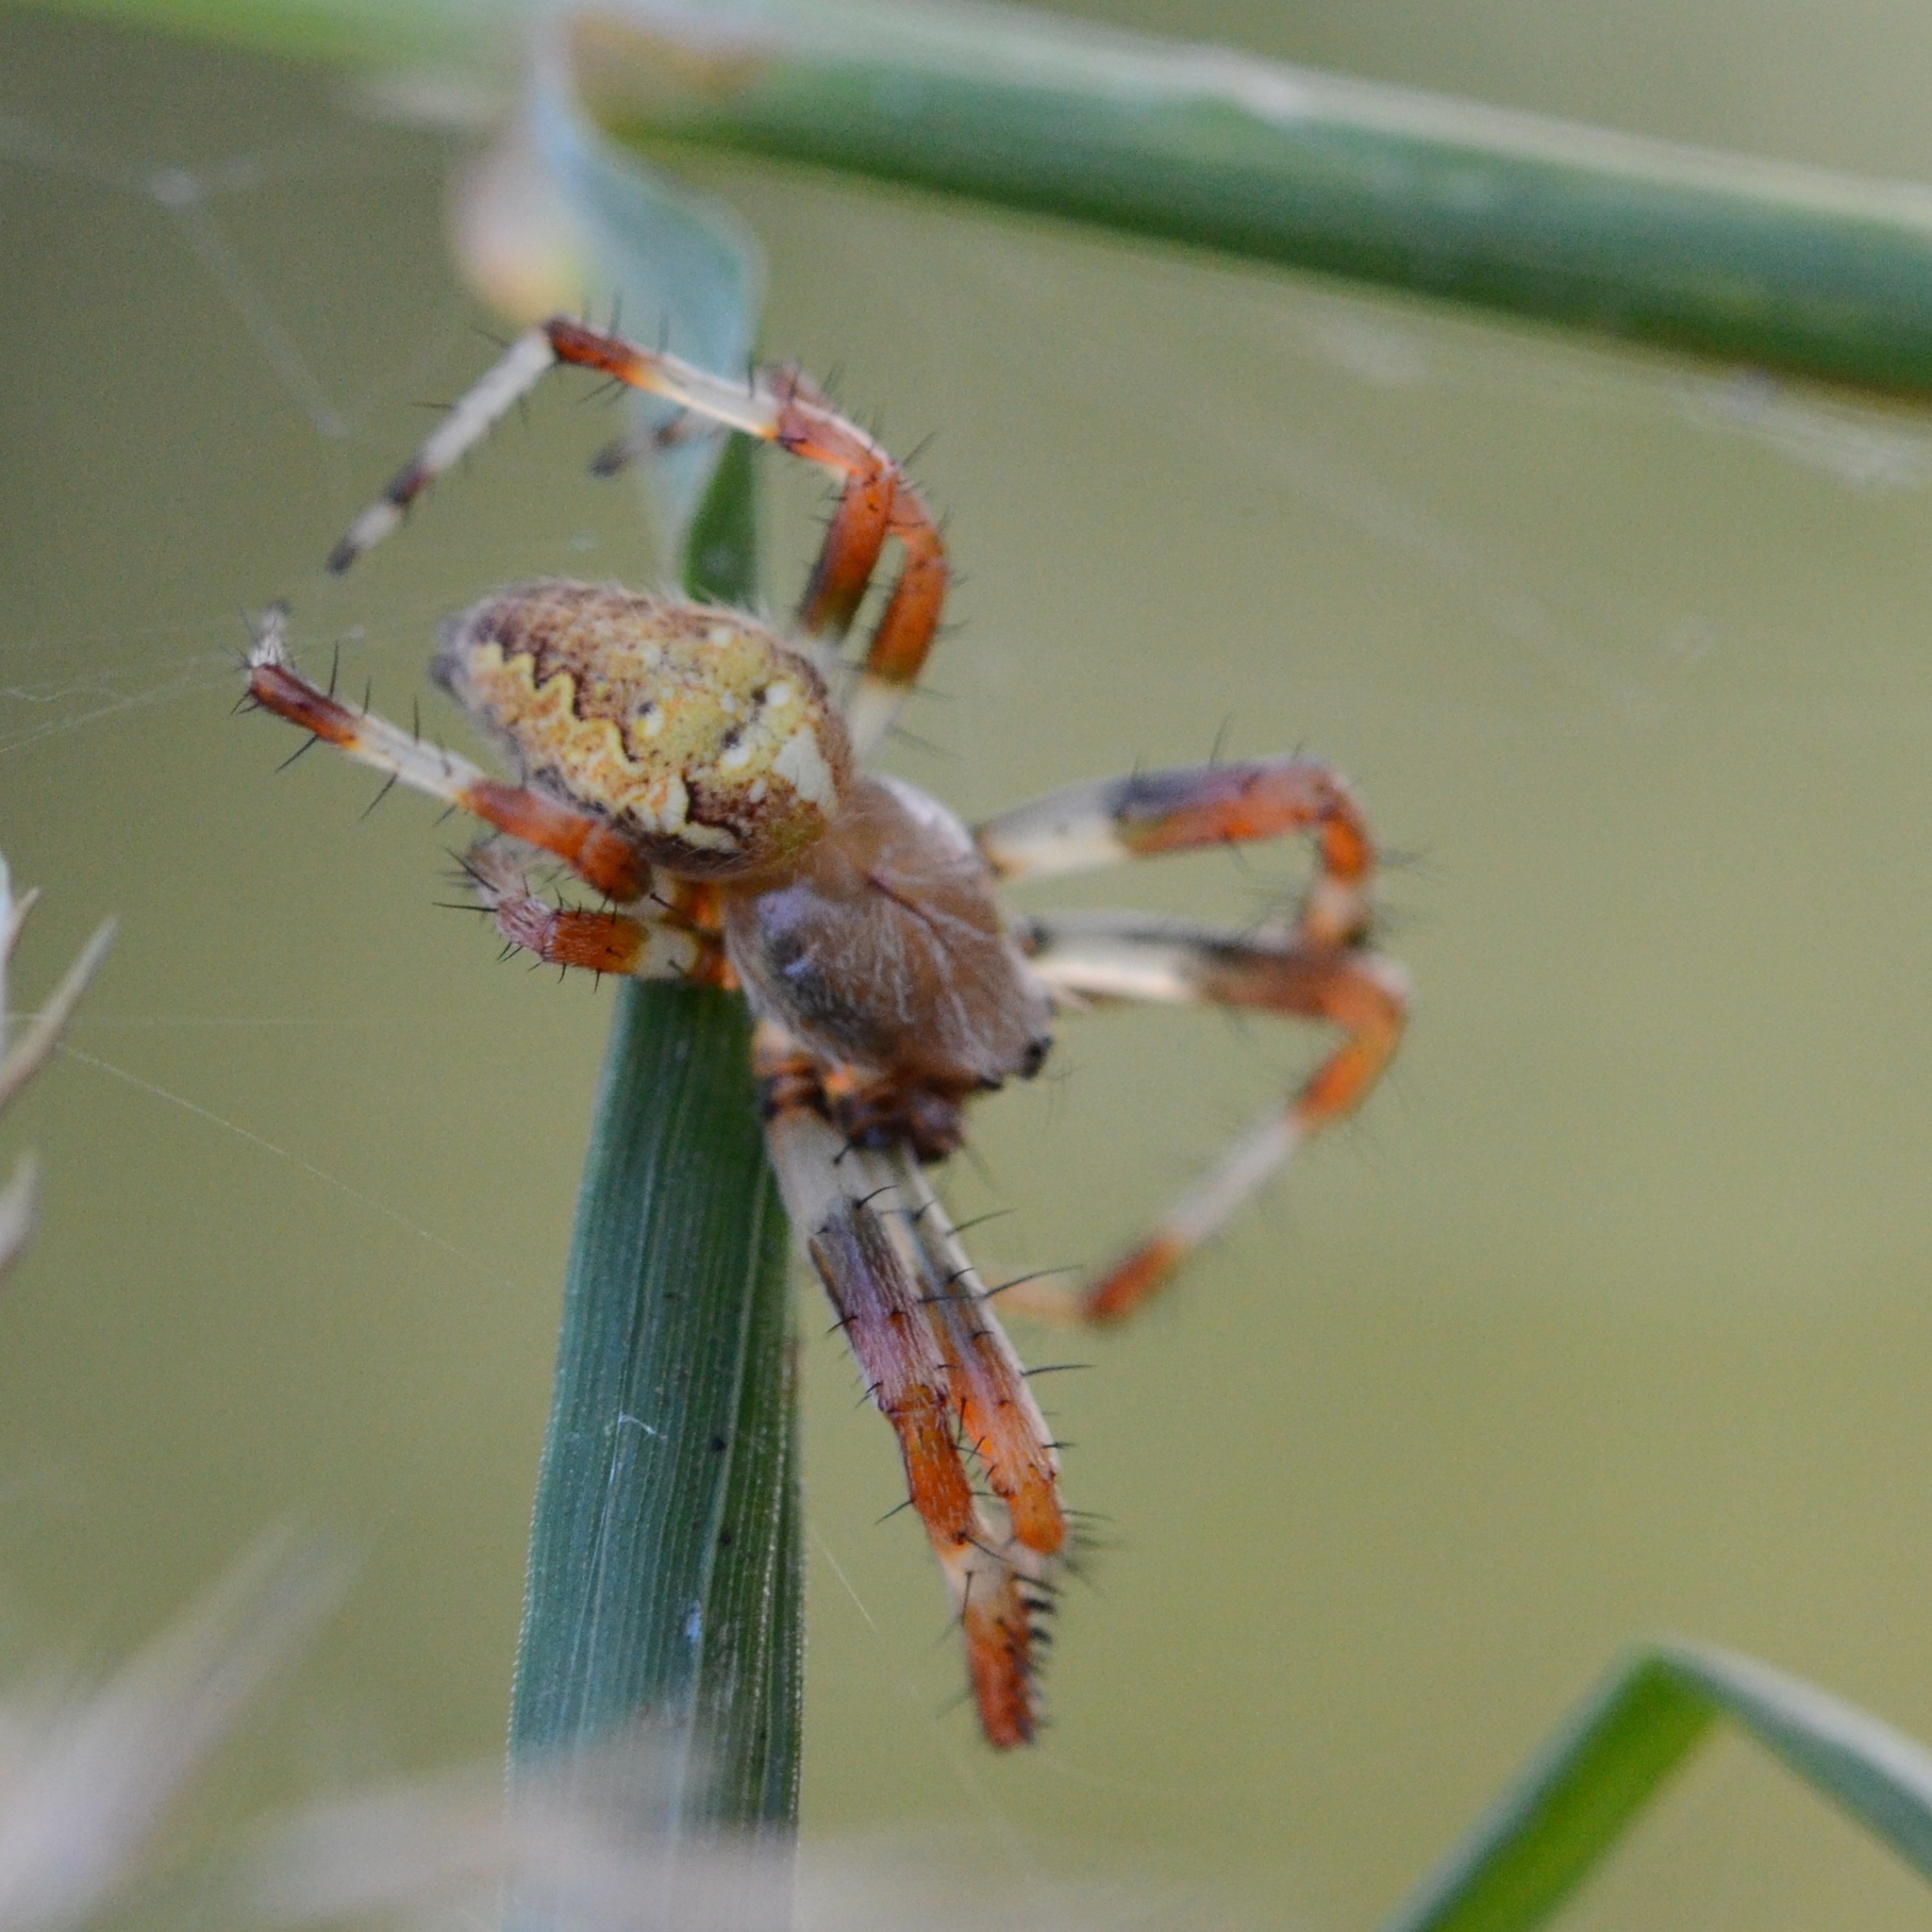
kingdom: Animalia
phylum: Arthropoda
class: Arachnida
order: Araneae
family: Araneidae
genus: Araneus
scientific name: Araneus marmoreus
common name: Marbled orbweaver
